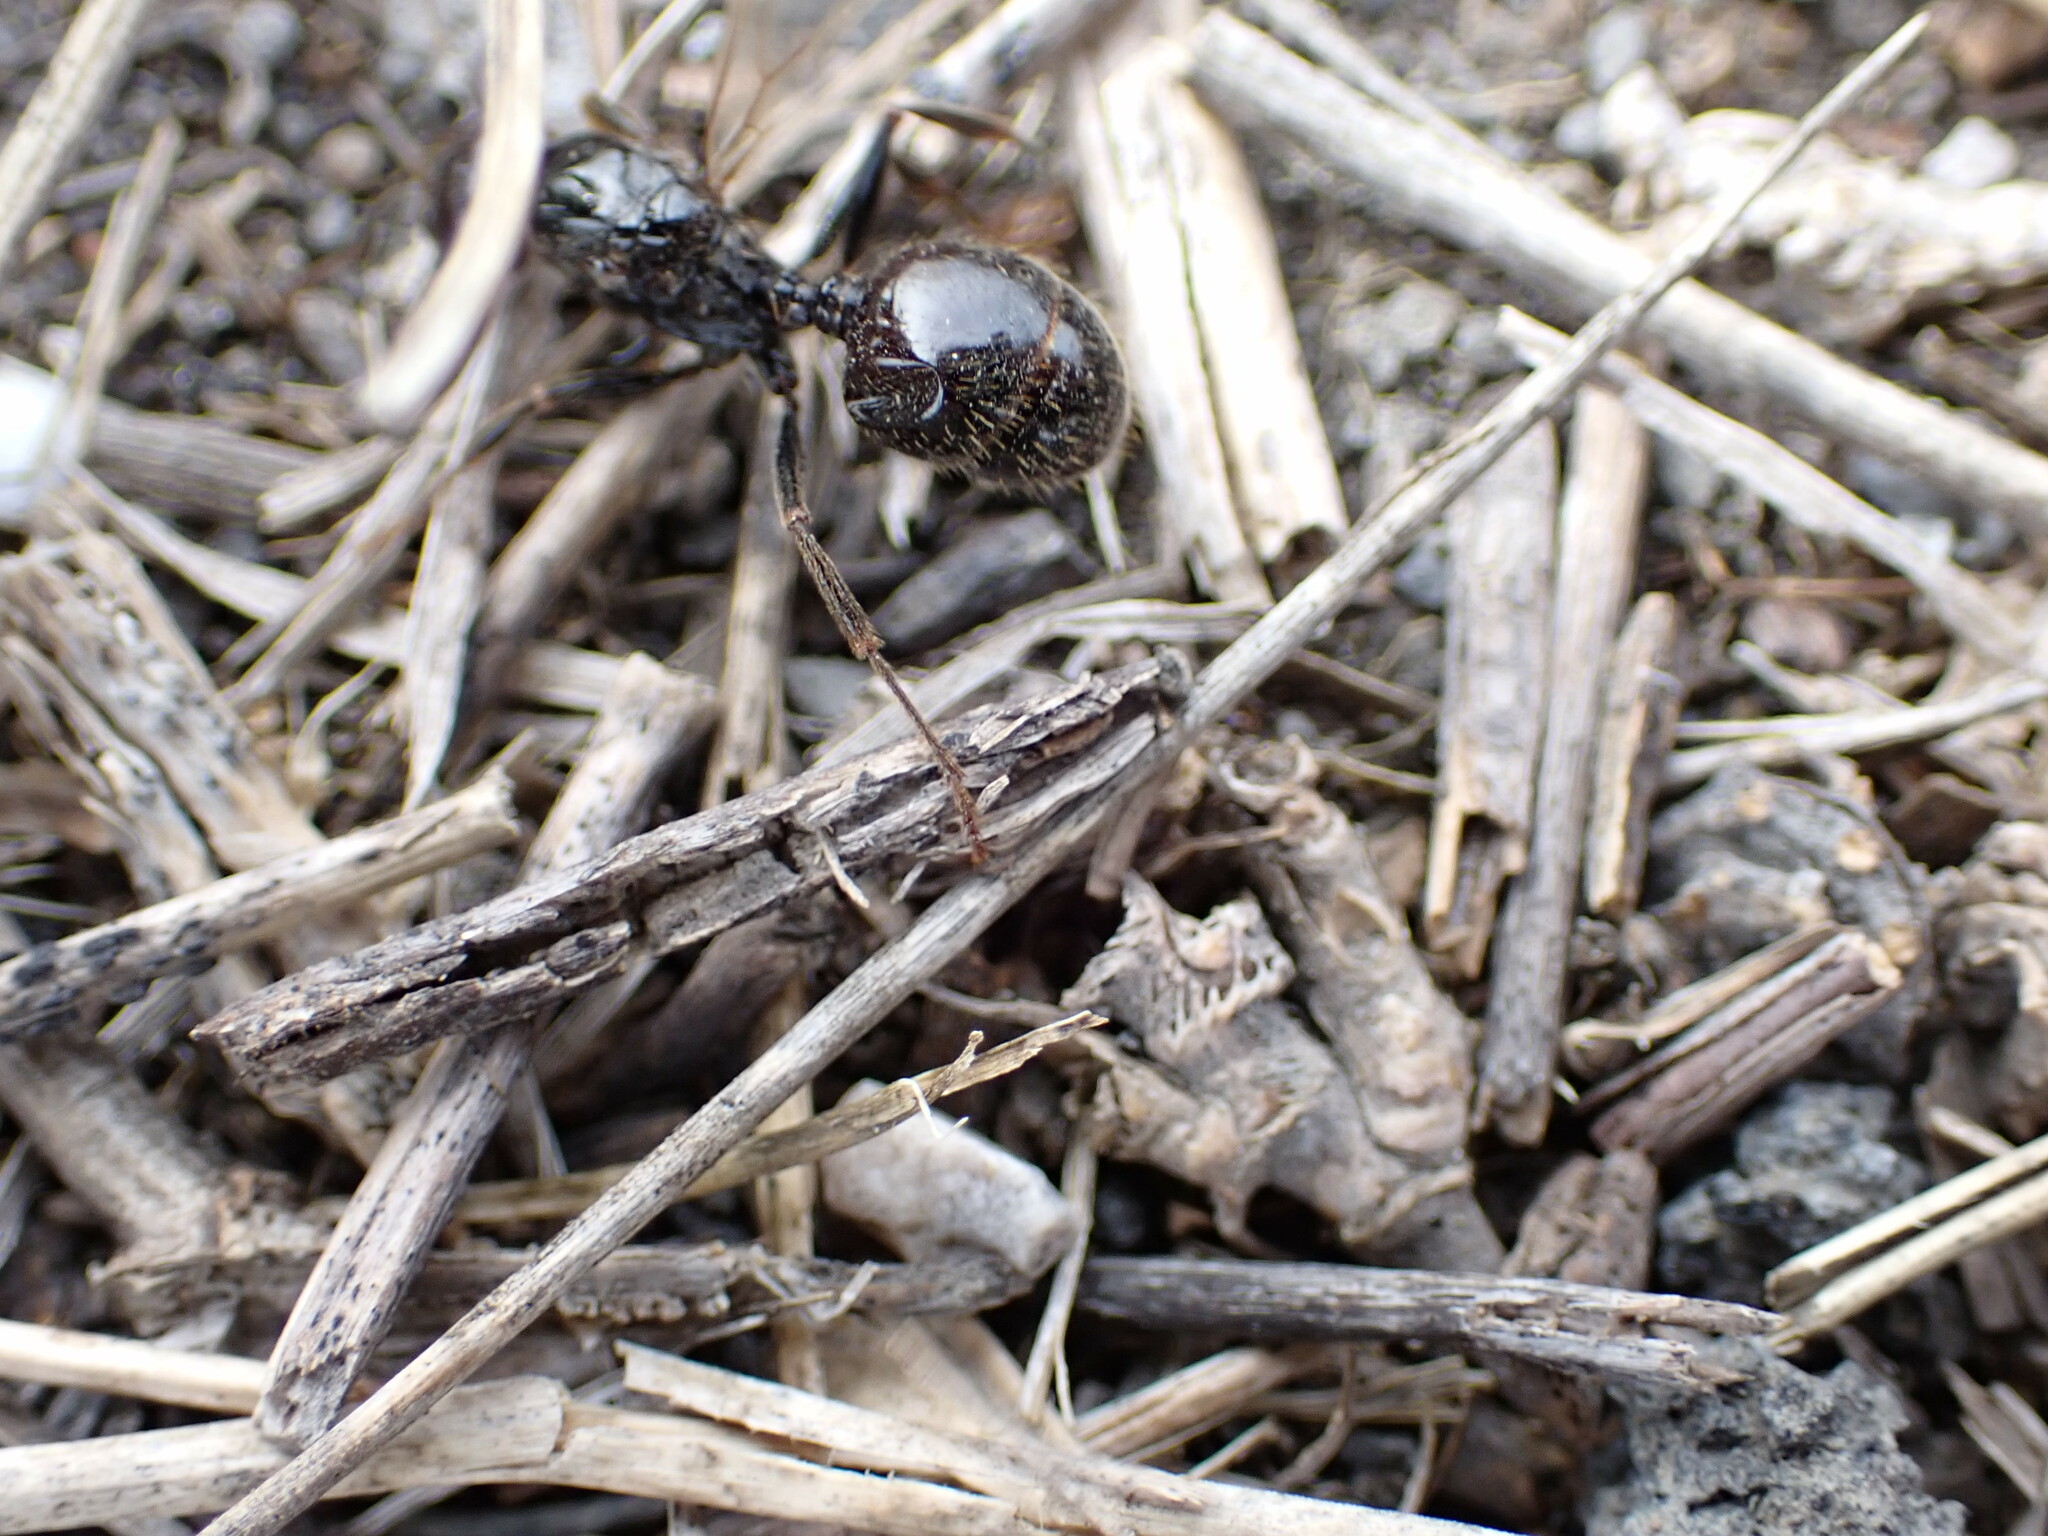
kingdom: Animalia
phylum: Arthropoda
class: Insecta
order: Hymenoptera
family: Formicidae
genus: Messor
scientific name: Messor barbarus
